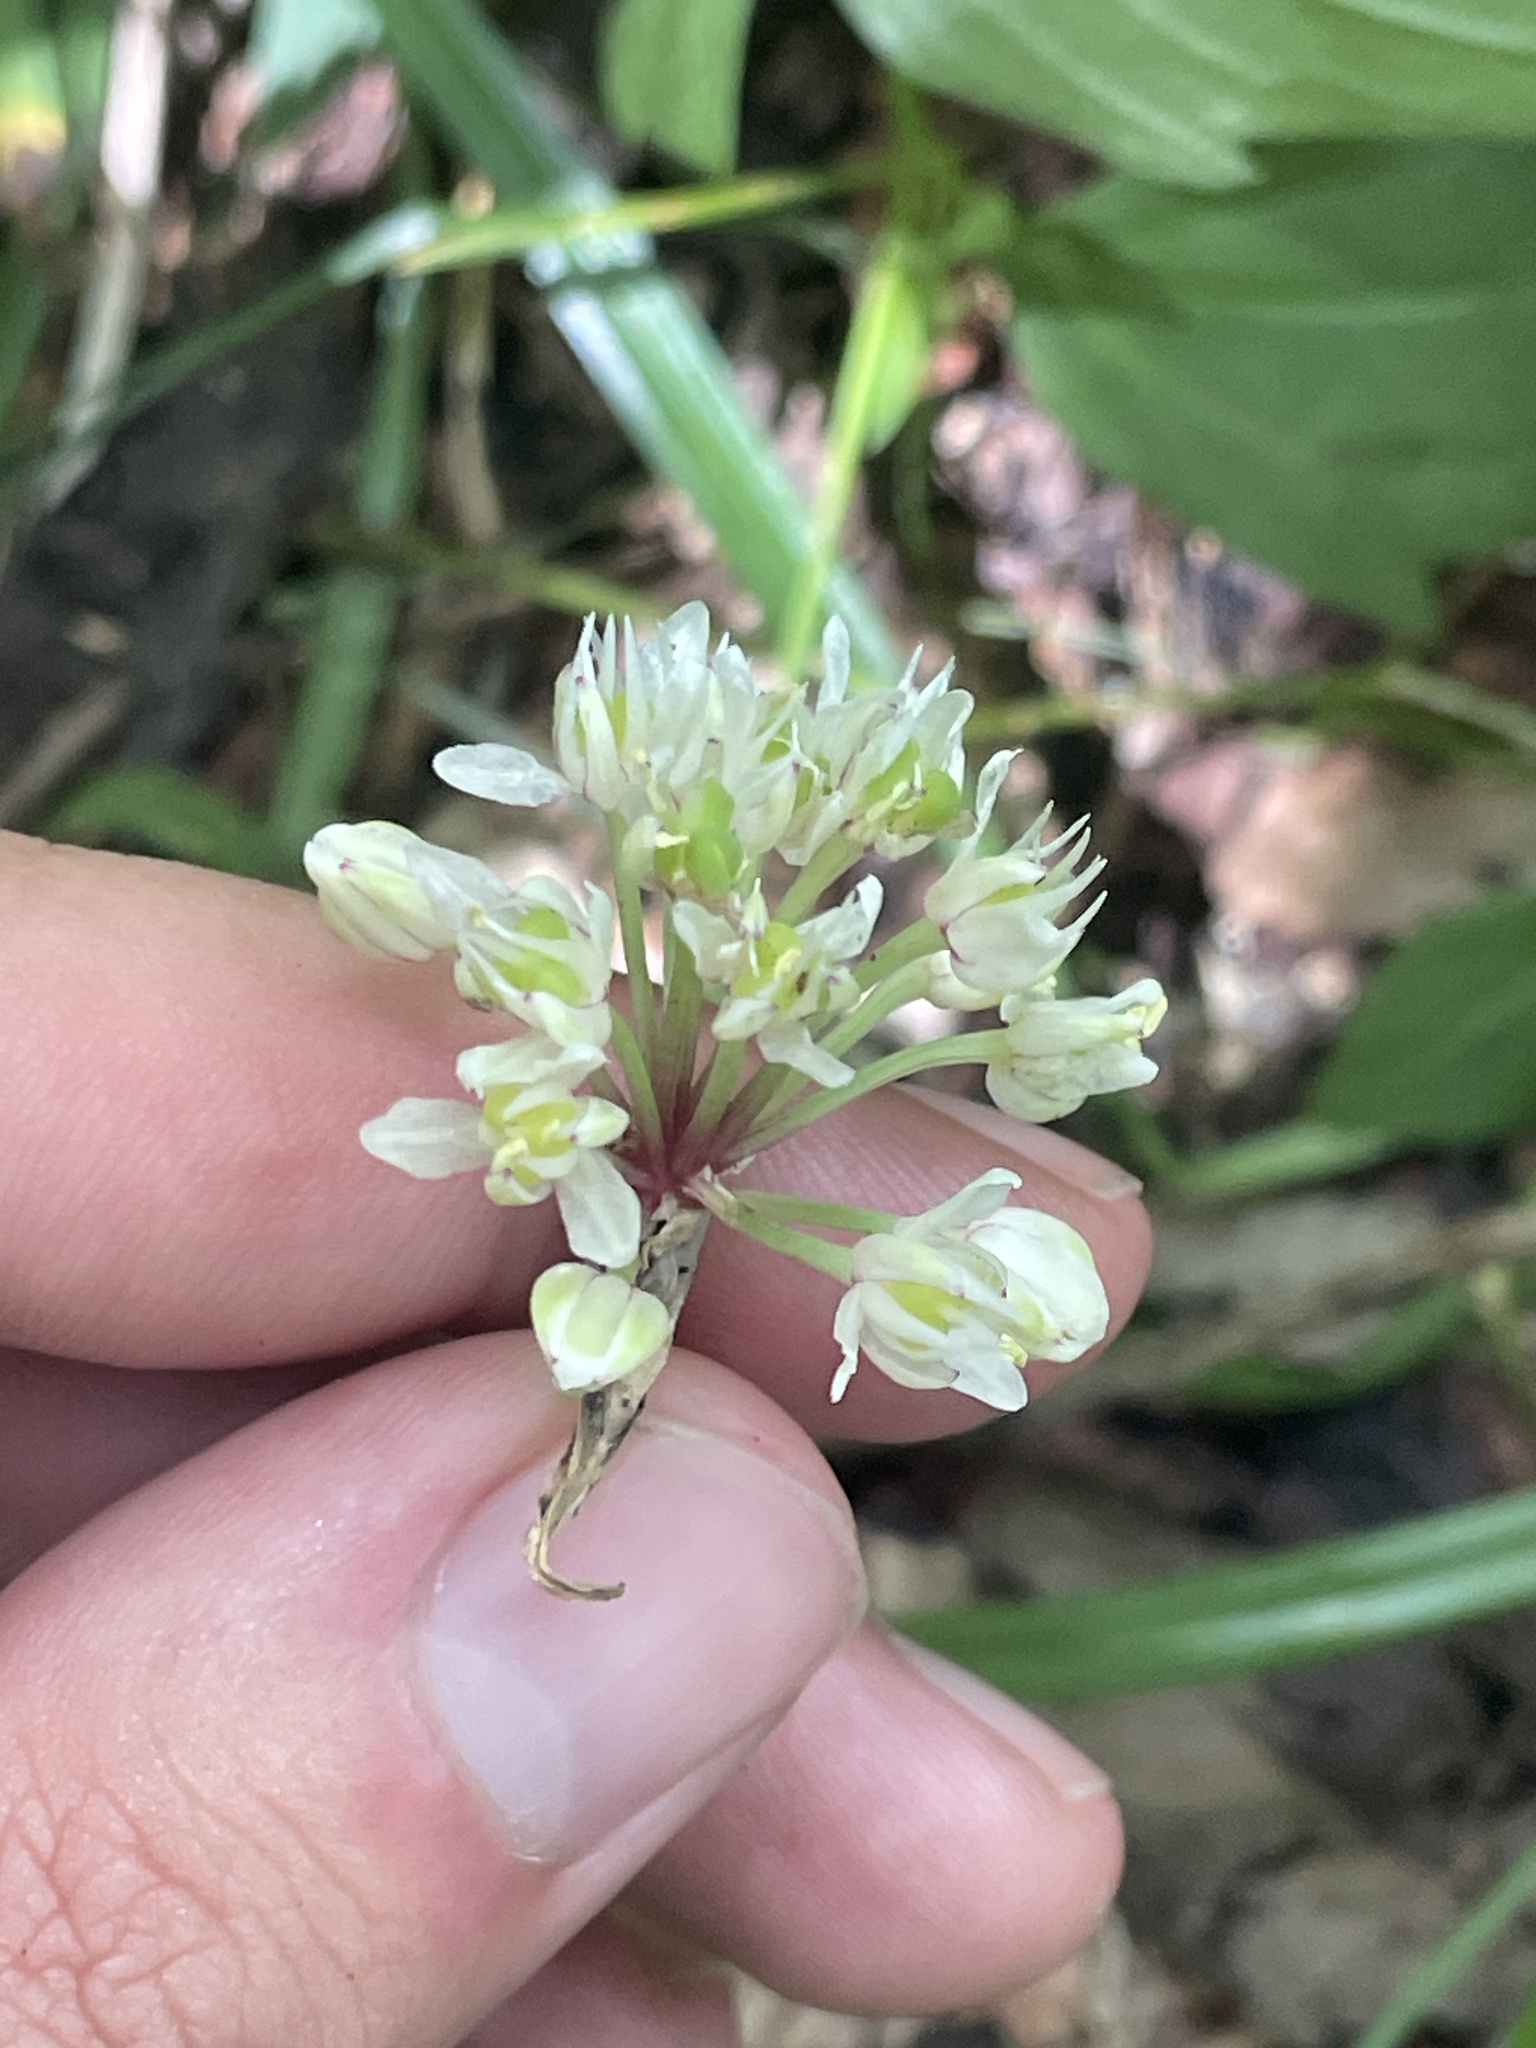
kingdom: Plantae
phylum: Tracheophyta
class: Liliopsida
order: Asparagales
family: Amaryllidaceae
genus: Allium
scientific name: Allium tricoccum
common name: Ramp
